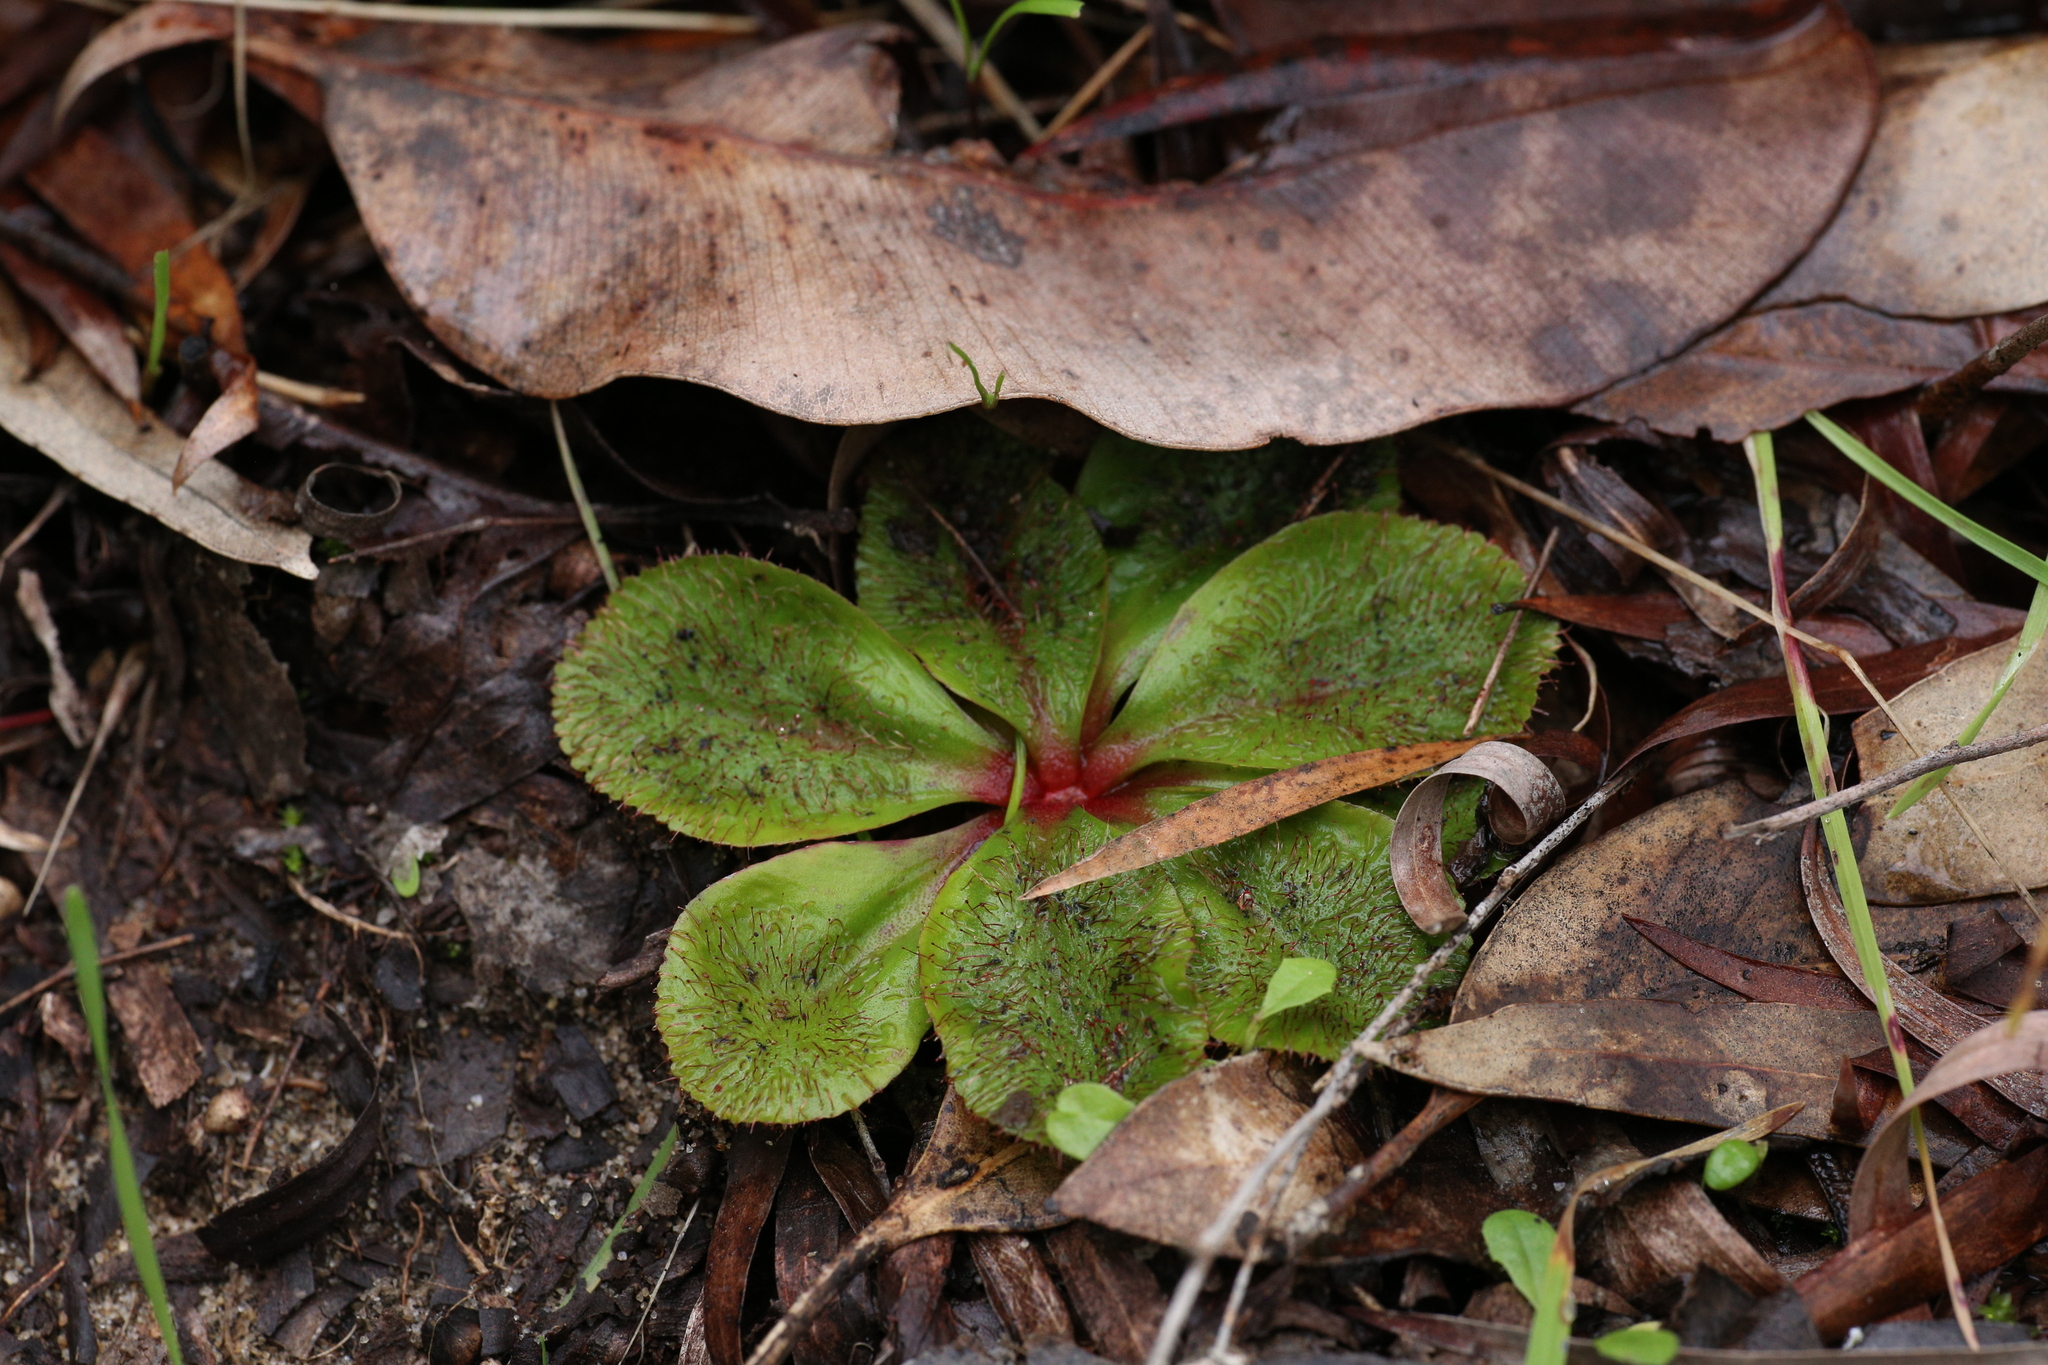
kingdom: Plantae
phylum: Tracheophyta
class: Magnoliopsida
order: Caryophyllales
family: Droseraceae
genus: Drosera
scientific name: Drosera rosulata
